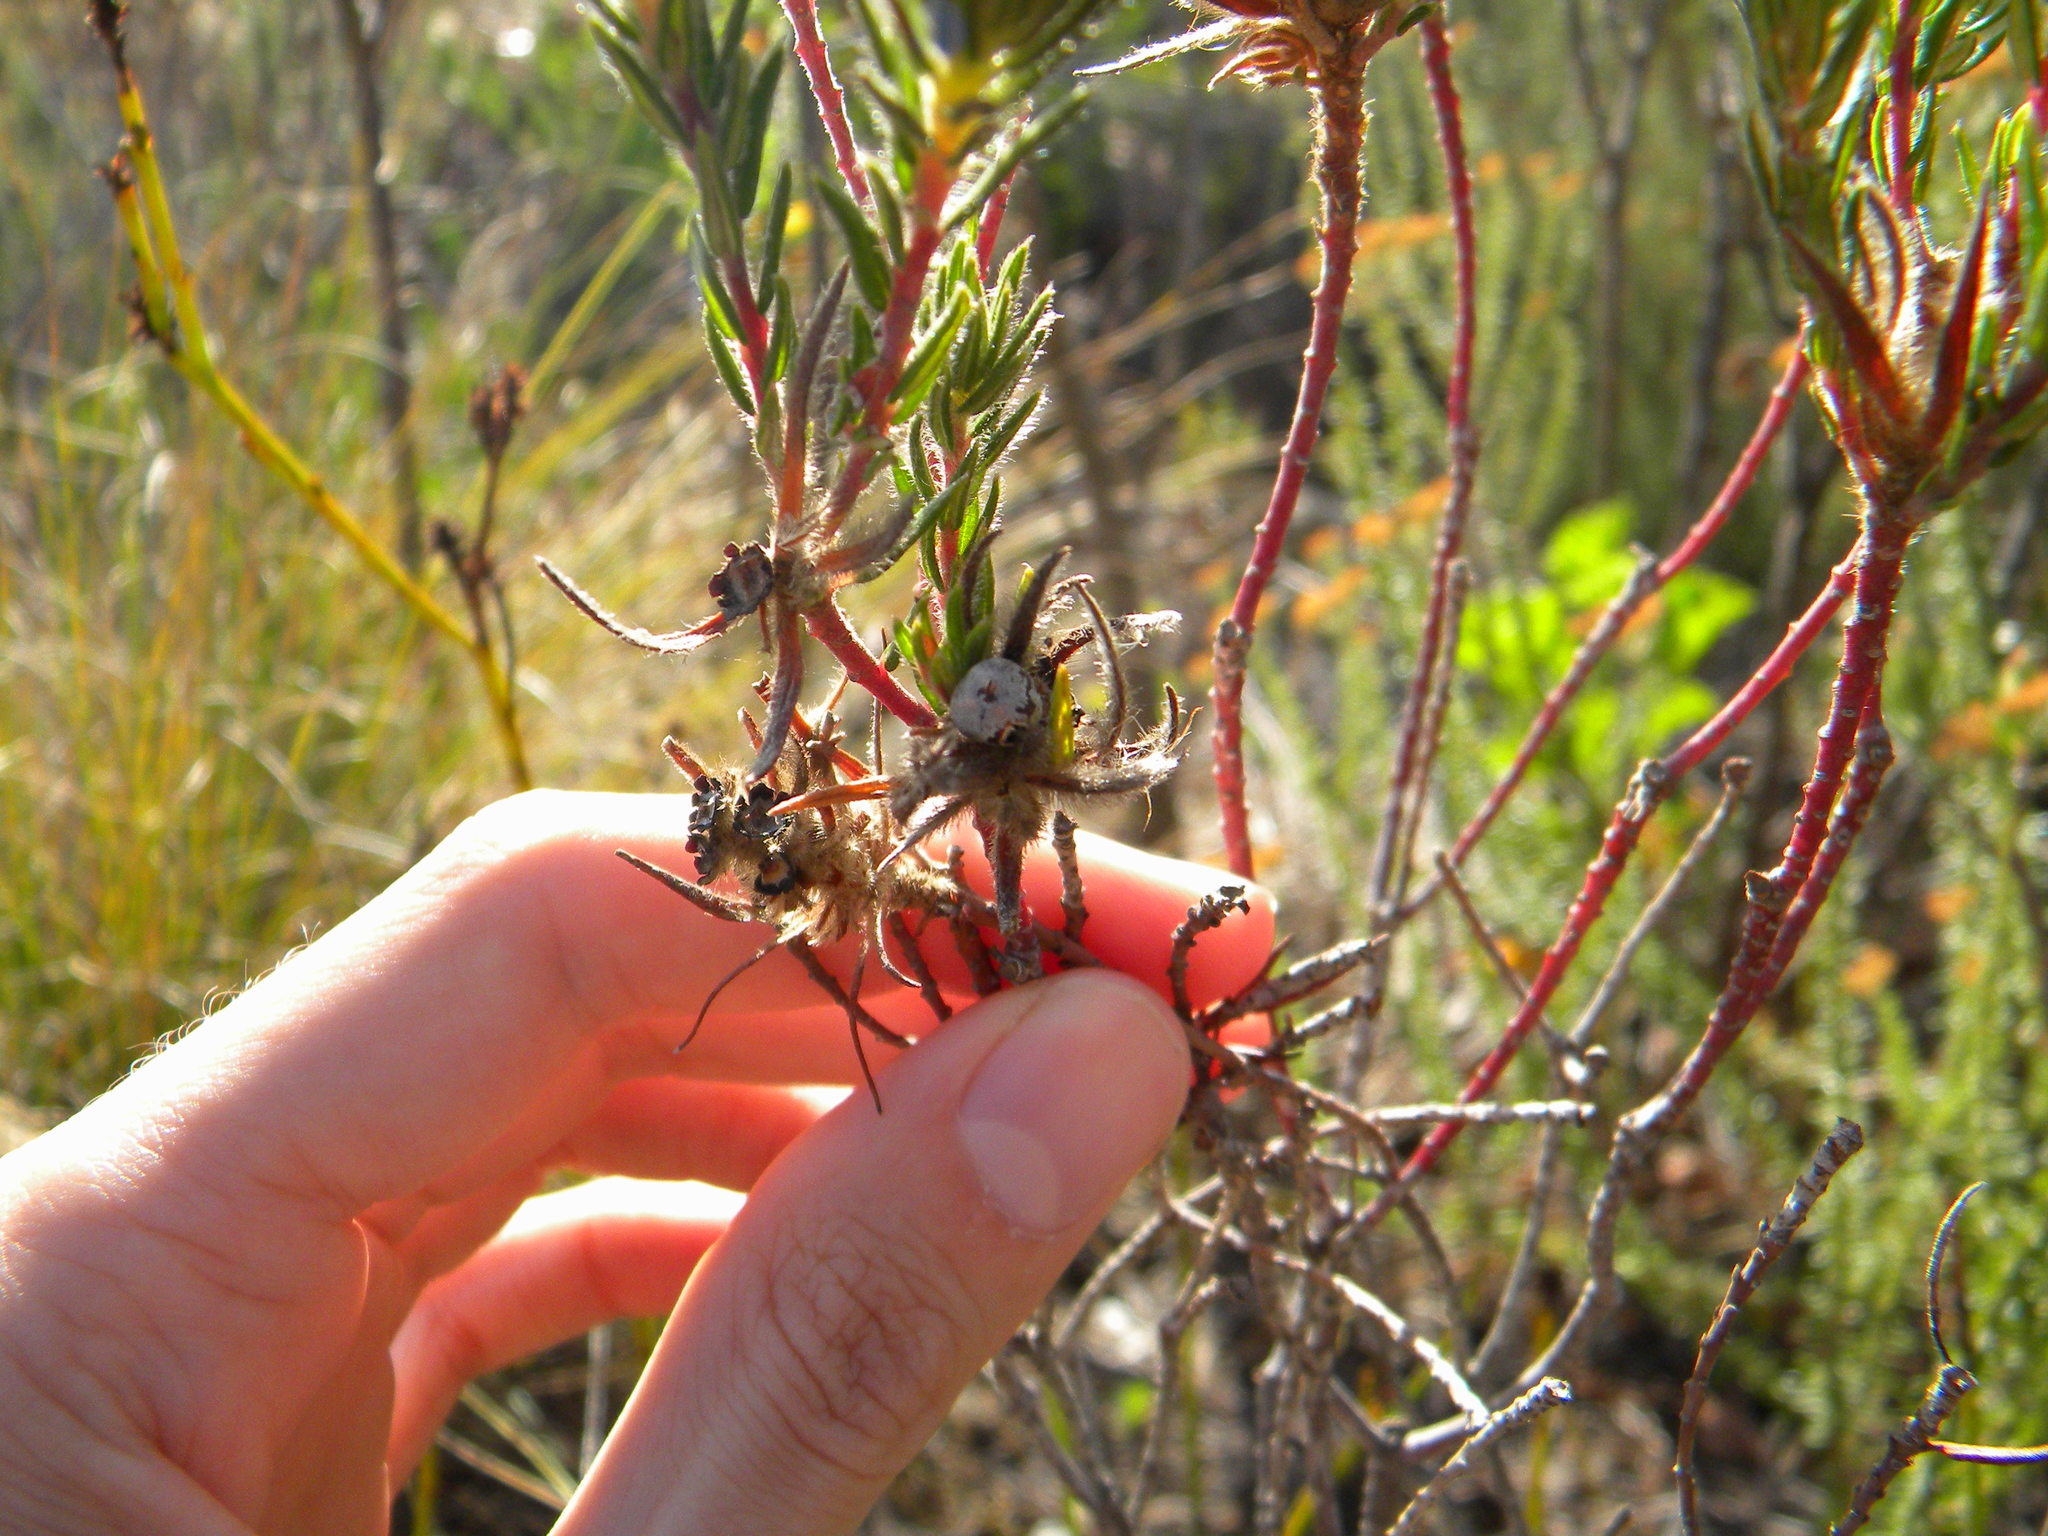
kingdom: Plantae
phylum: Tracheophyta
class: Magnoliopsida
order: Rosales
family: Rhamnaceae
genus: Phylica
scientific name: Phylica pubescens
